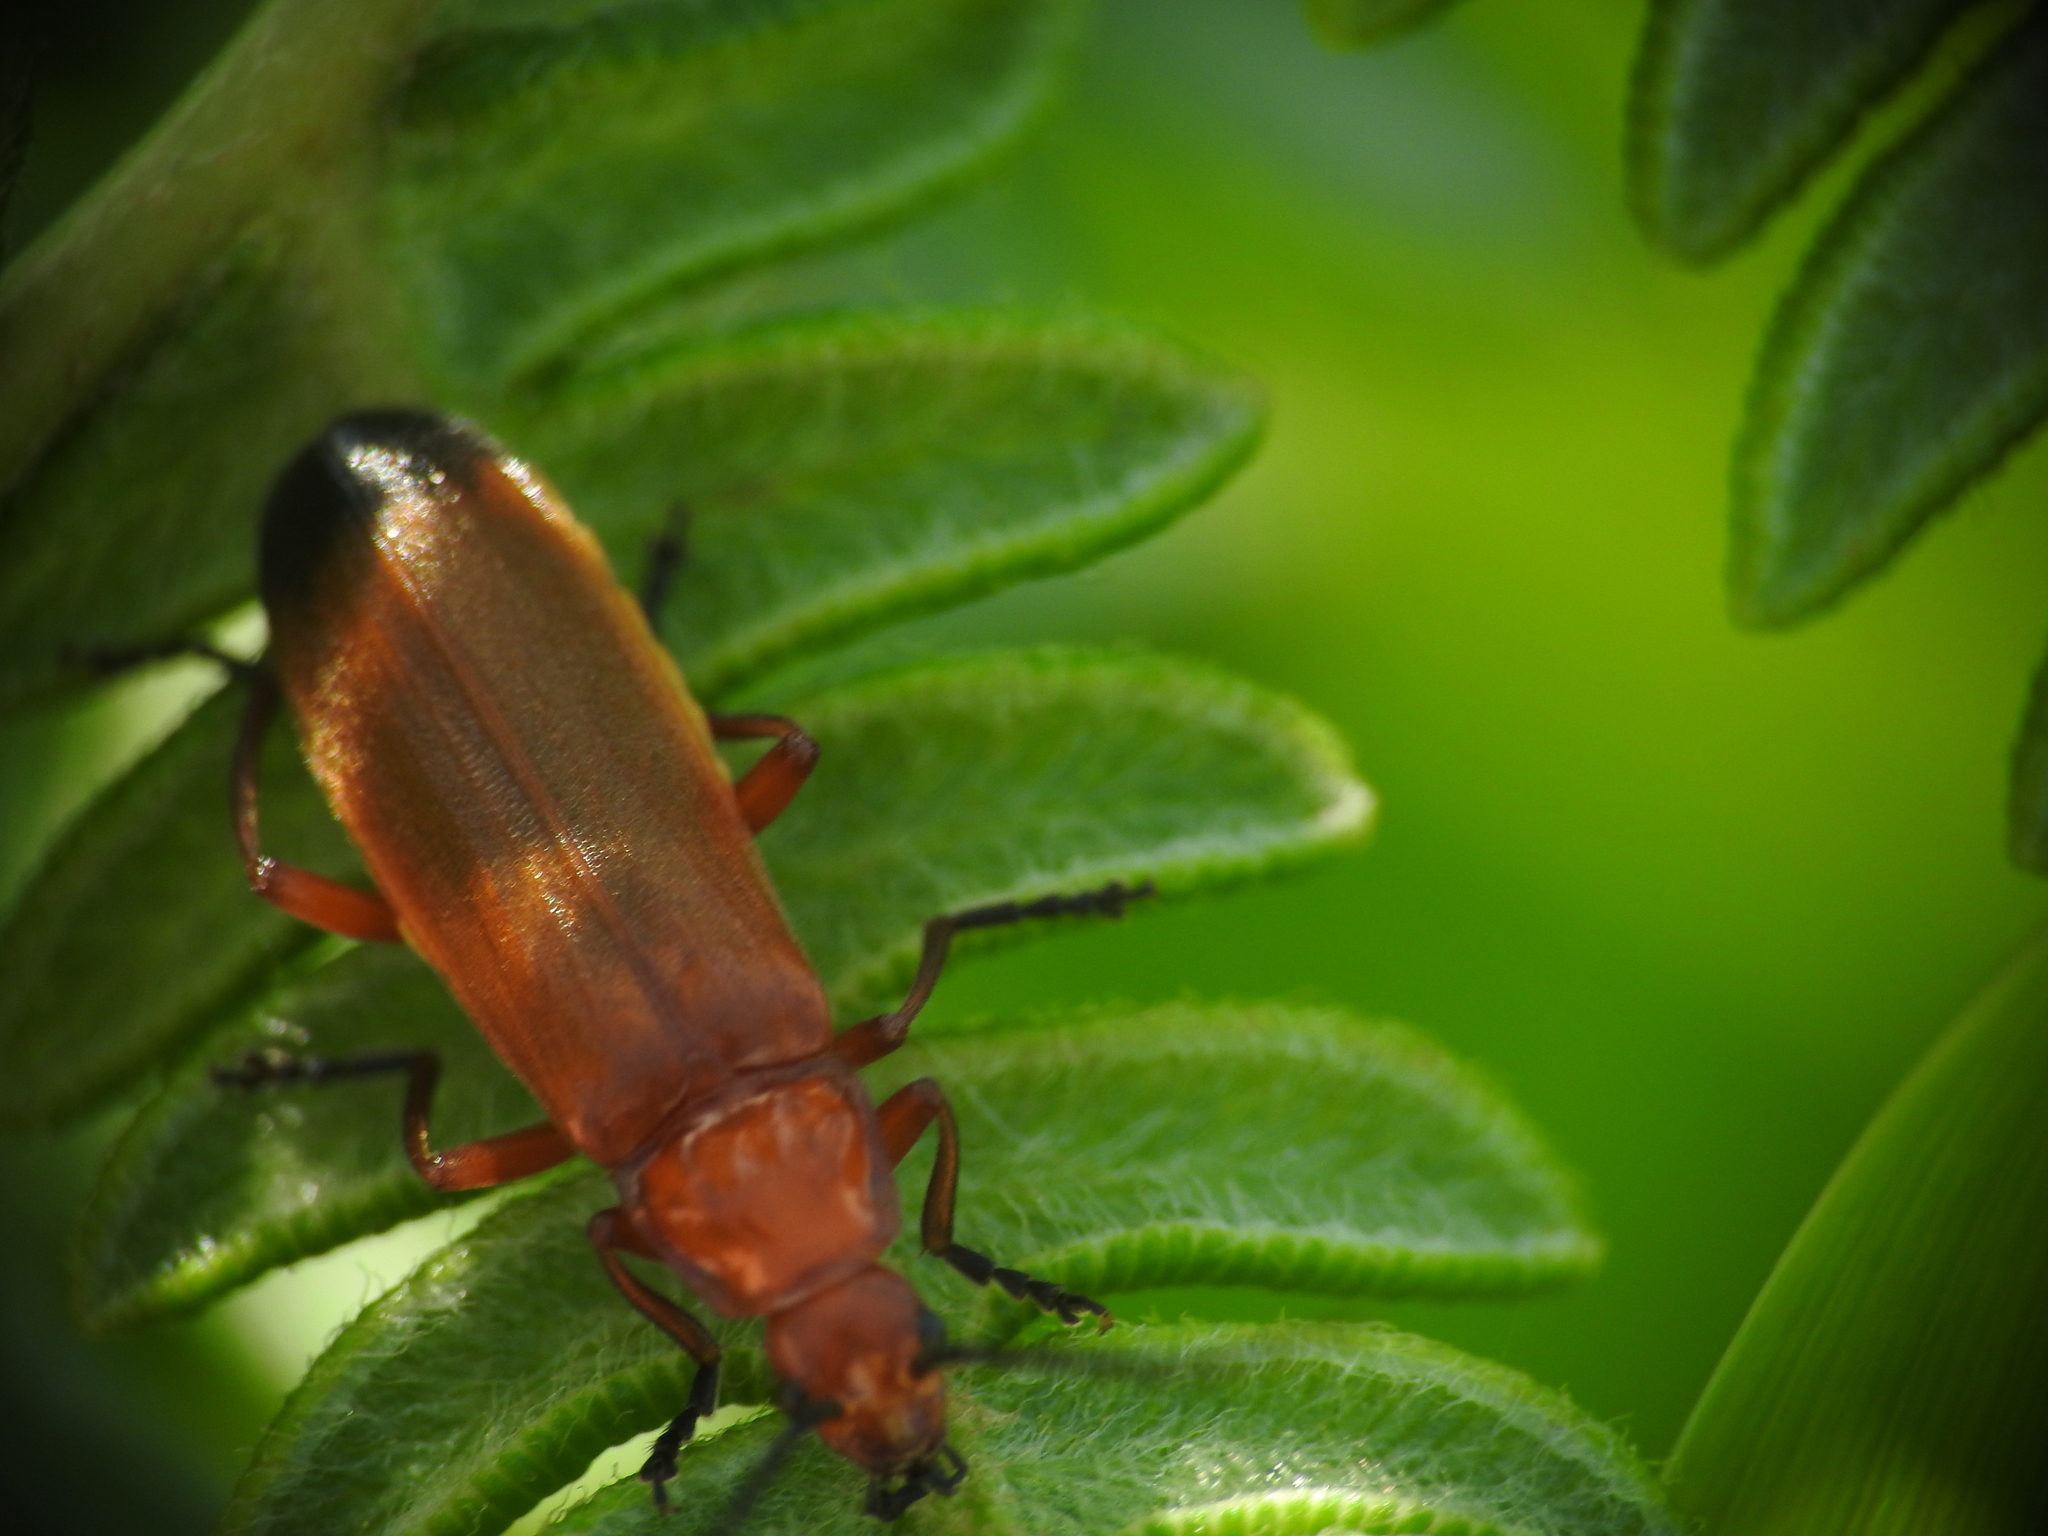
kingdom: Animalia
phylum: Arthropoda
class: Insecta
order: Coleoptera
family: Cantharidae
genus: Rhagonycha
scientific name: Rhagonycha fulva
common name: Common red soldier beetle
